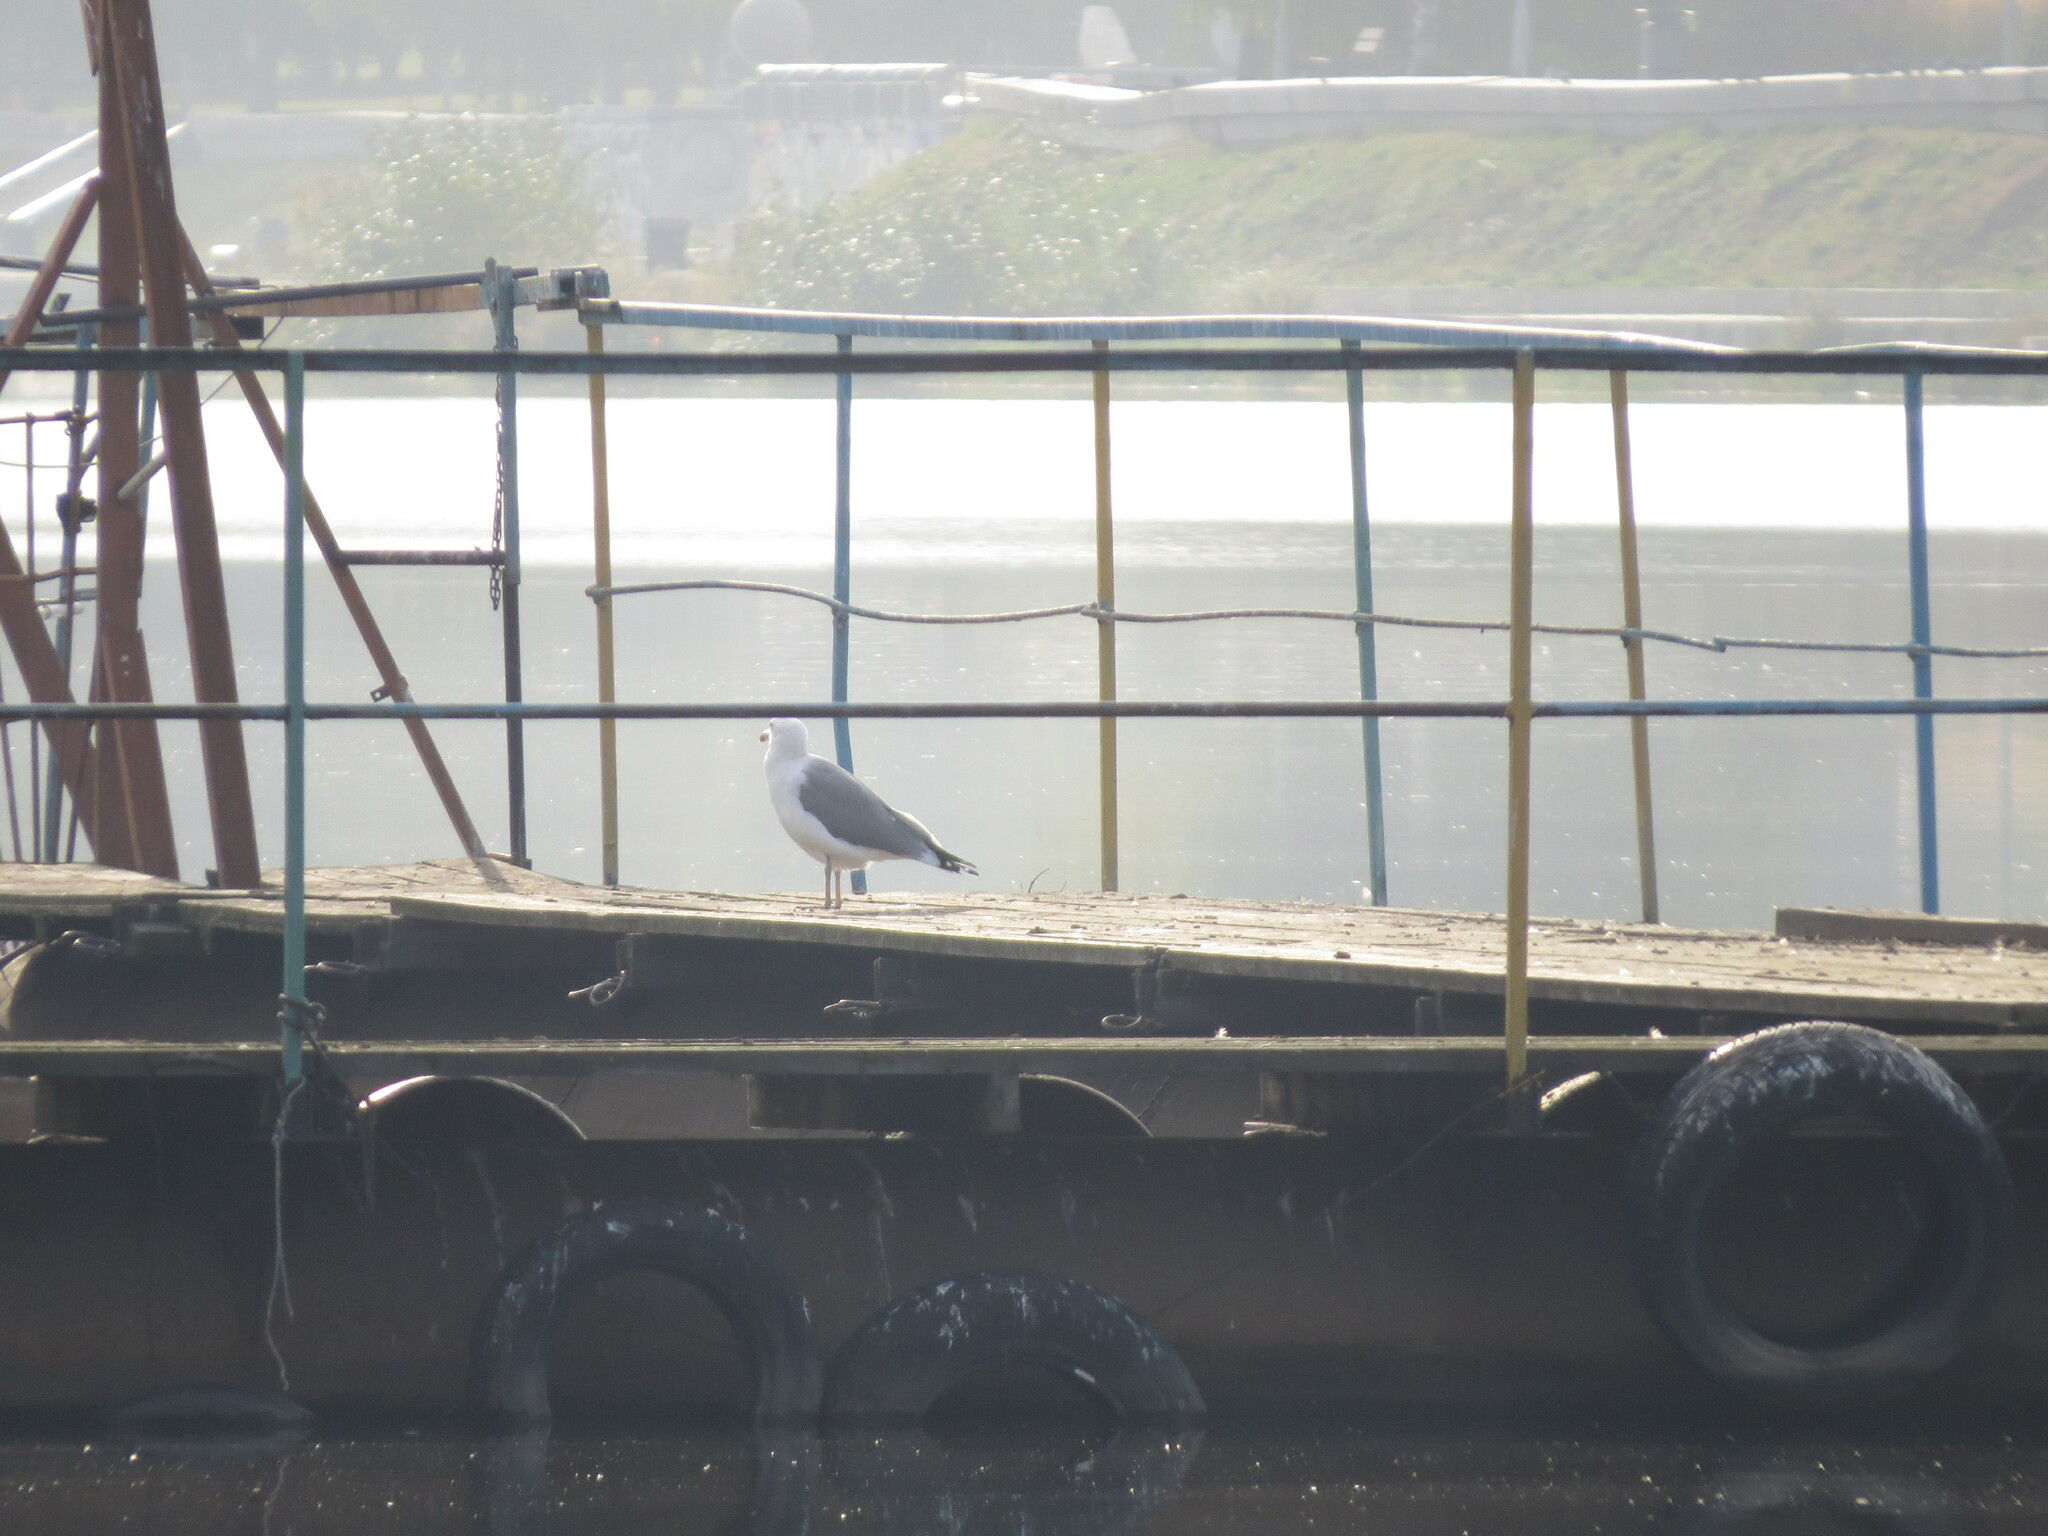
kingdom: Animalia
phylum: Chordata
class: Aves
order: Charadriiformes
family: Laridae
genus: Larus
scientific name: Larus fuscus
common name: Lesser black-backed gull
